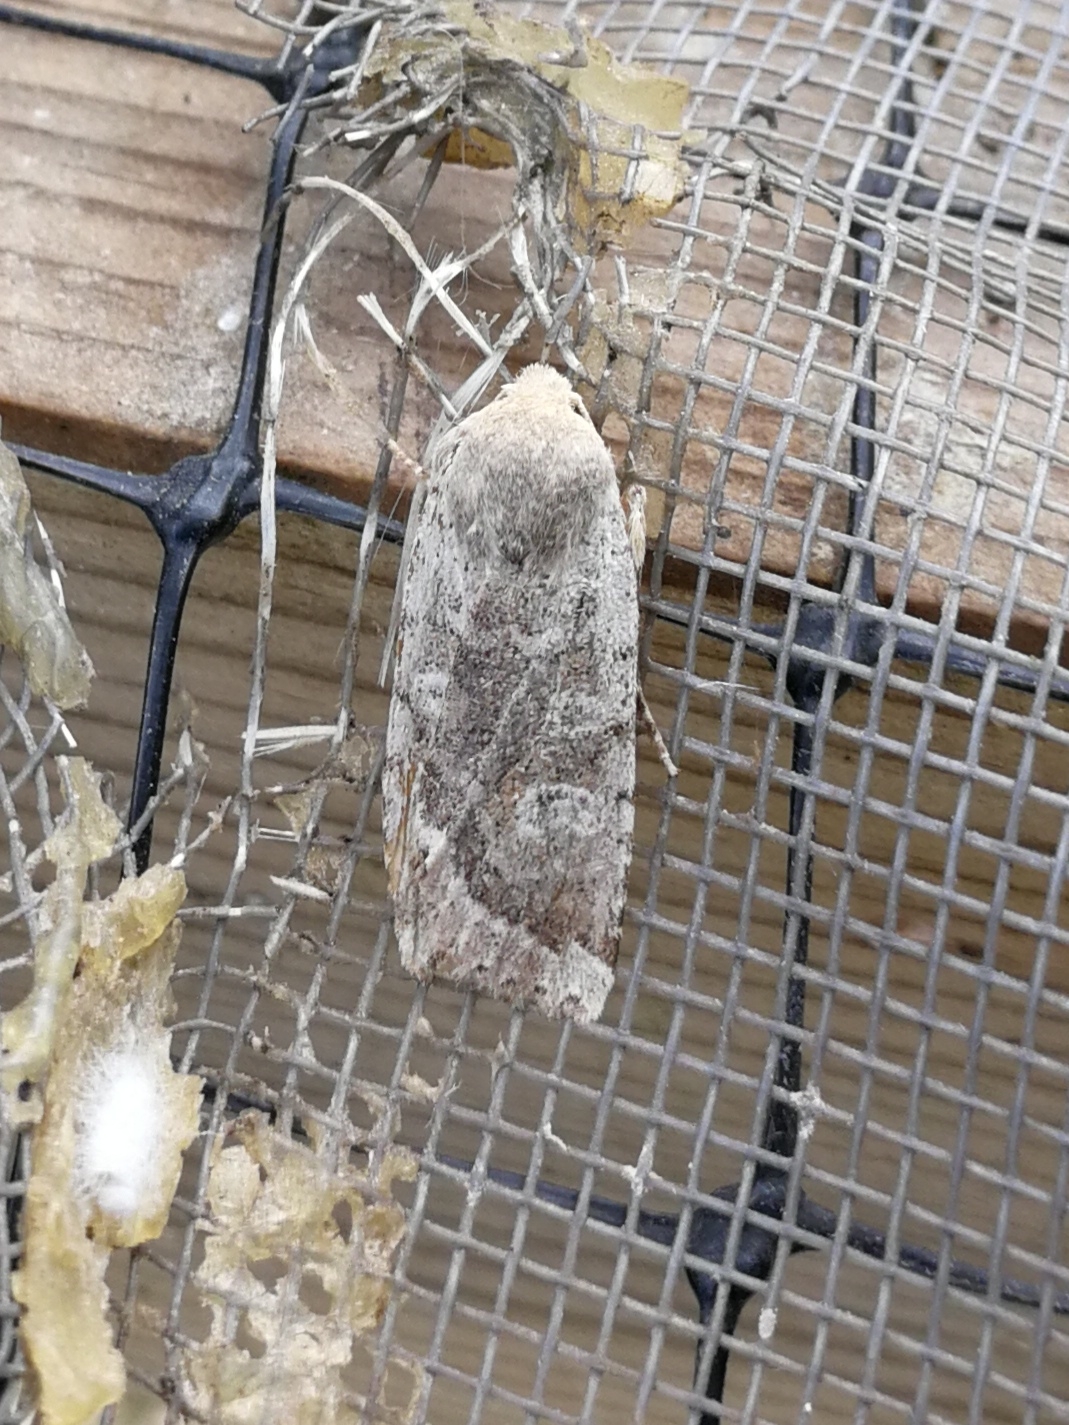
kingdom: Animalia
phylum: Arthropoda
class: Insecta
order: Lepidoptera
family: Noctuidae
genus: Conistra
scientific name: Conistra daubei
